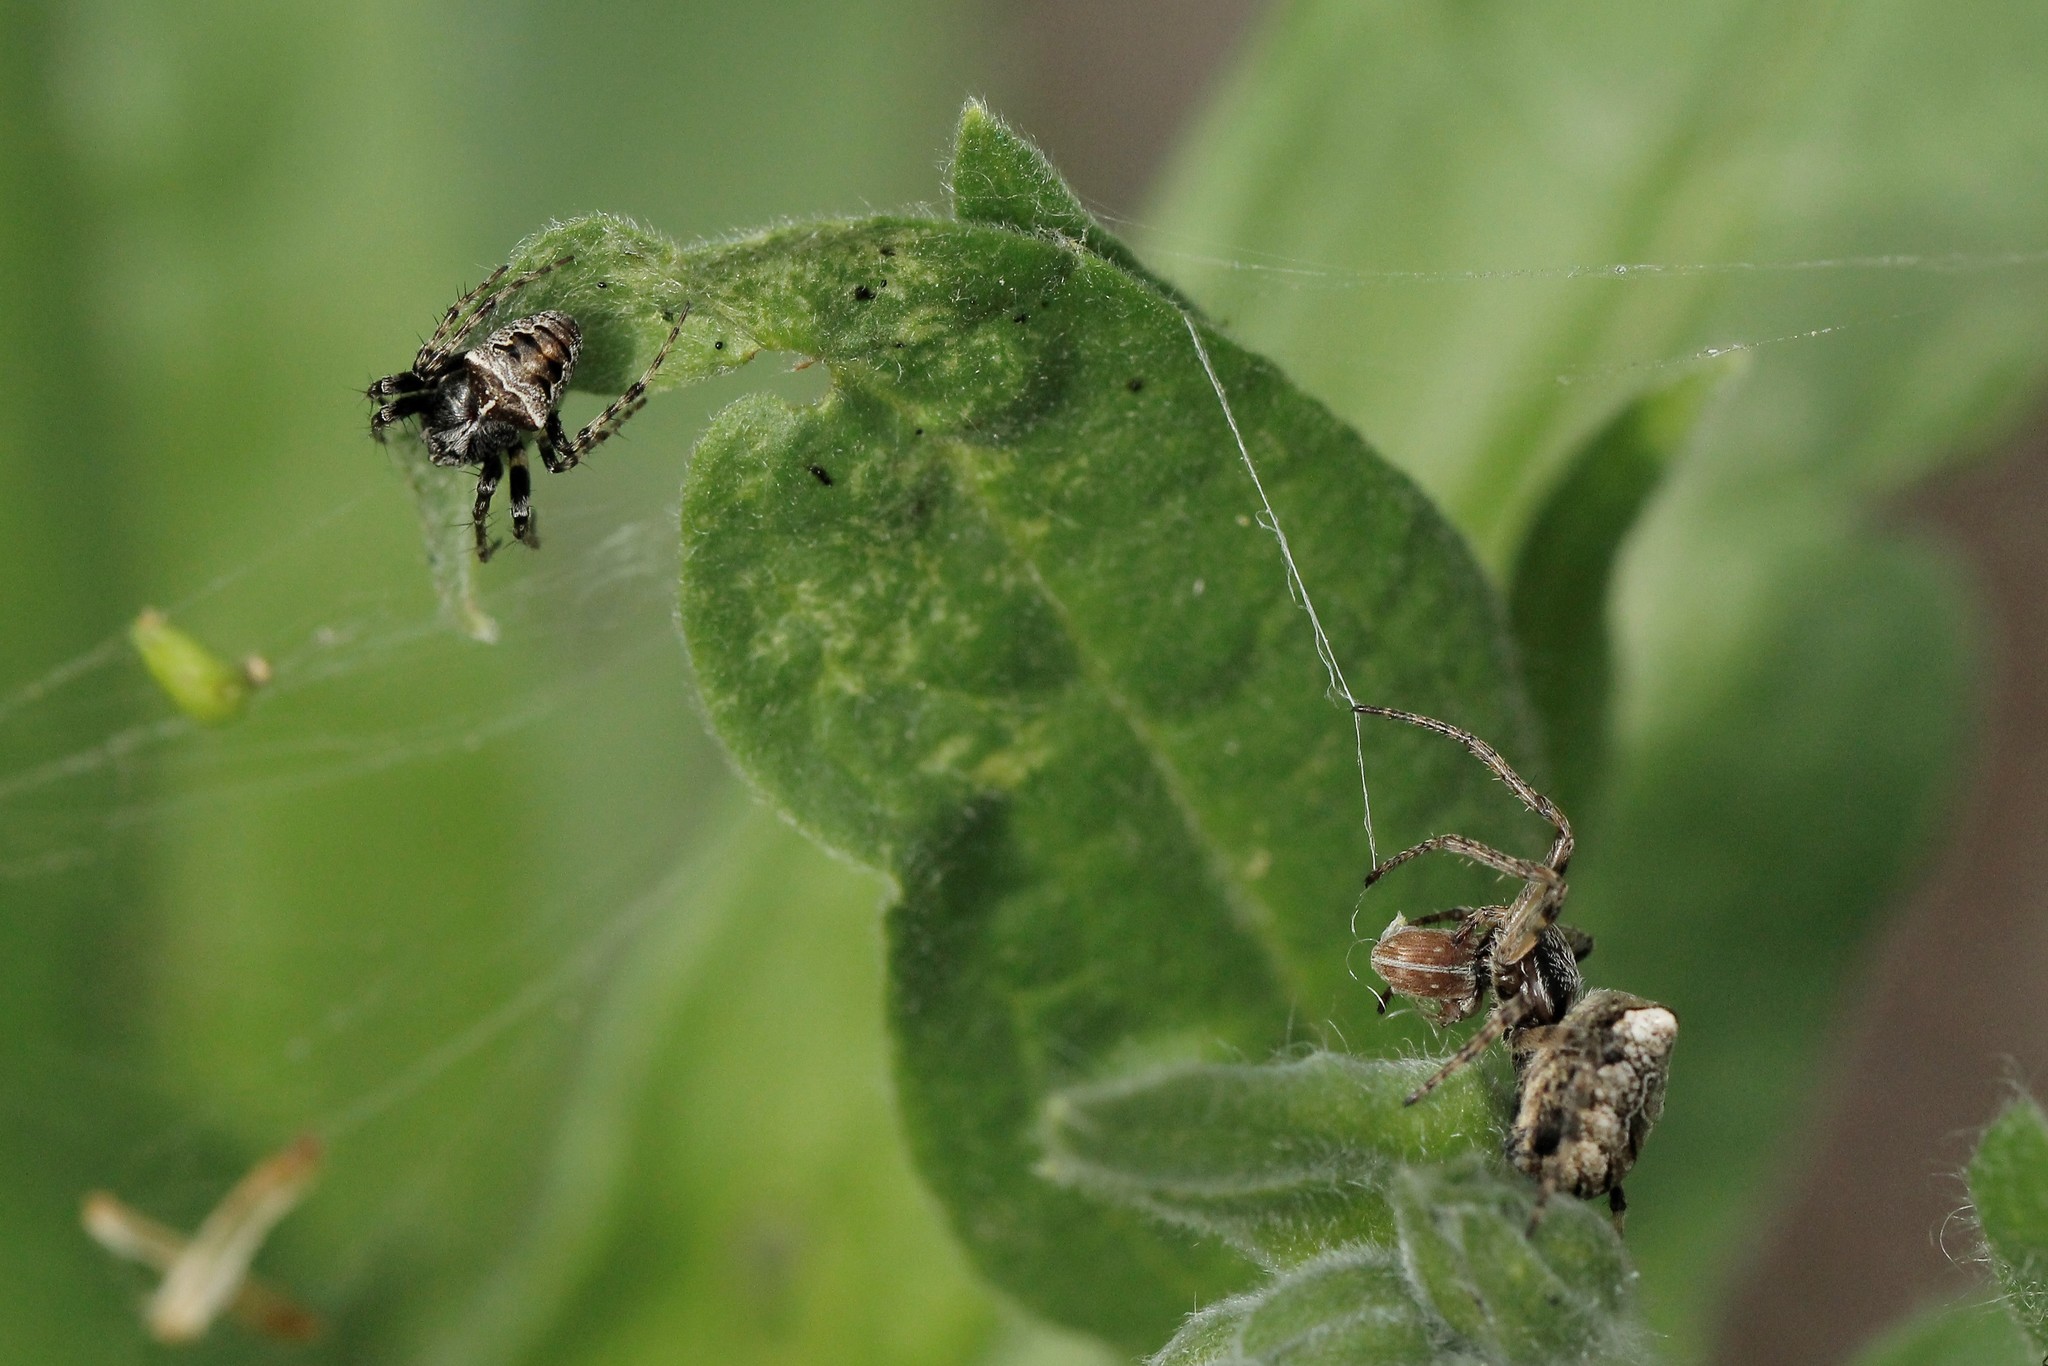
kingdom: Animalia
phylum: Arthropoda
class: Arachnida
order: Araneae
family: Araneidae
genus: Gibbaranea
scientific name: Gibbaranea bituberculata
